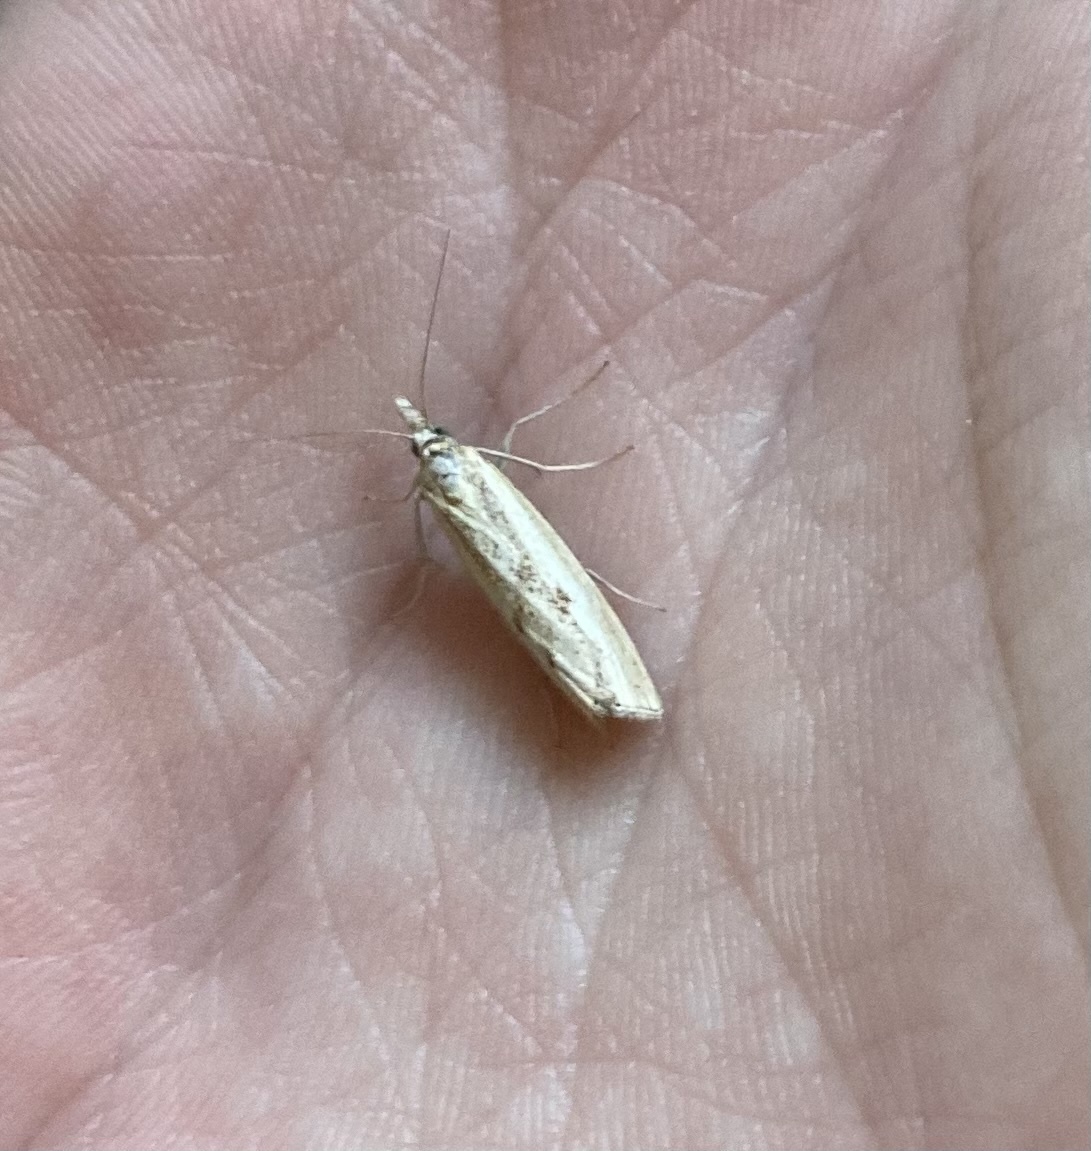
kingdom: Animalia
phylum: Arthropoda
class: Insecta
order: Lepidoptera
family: Crambidae
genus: Agriphila
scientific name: Agriphila inquinatella
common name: Barred grass-veneer
